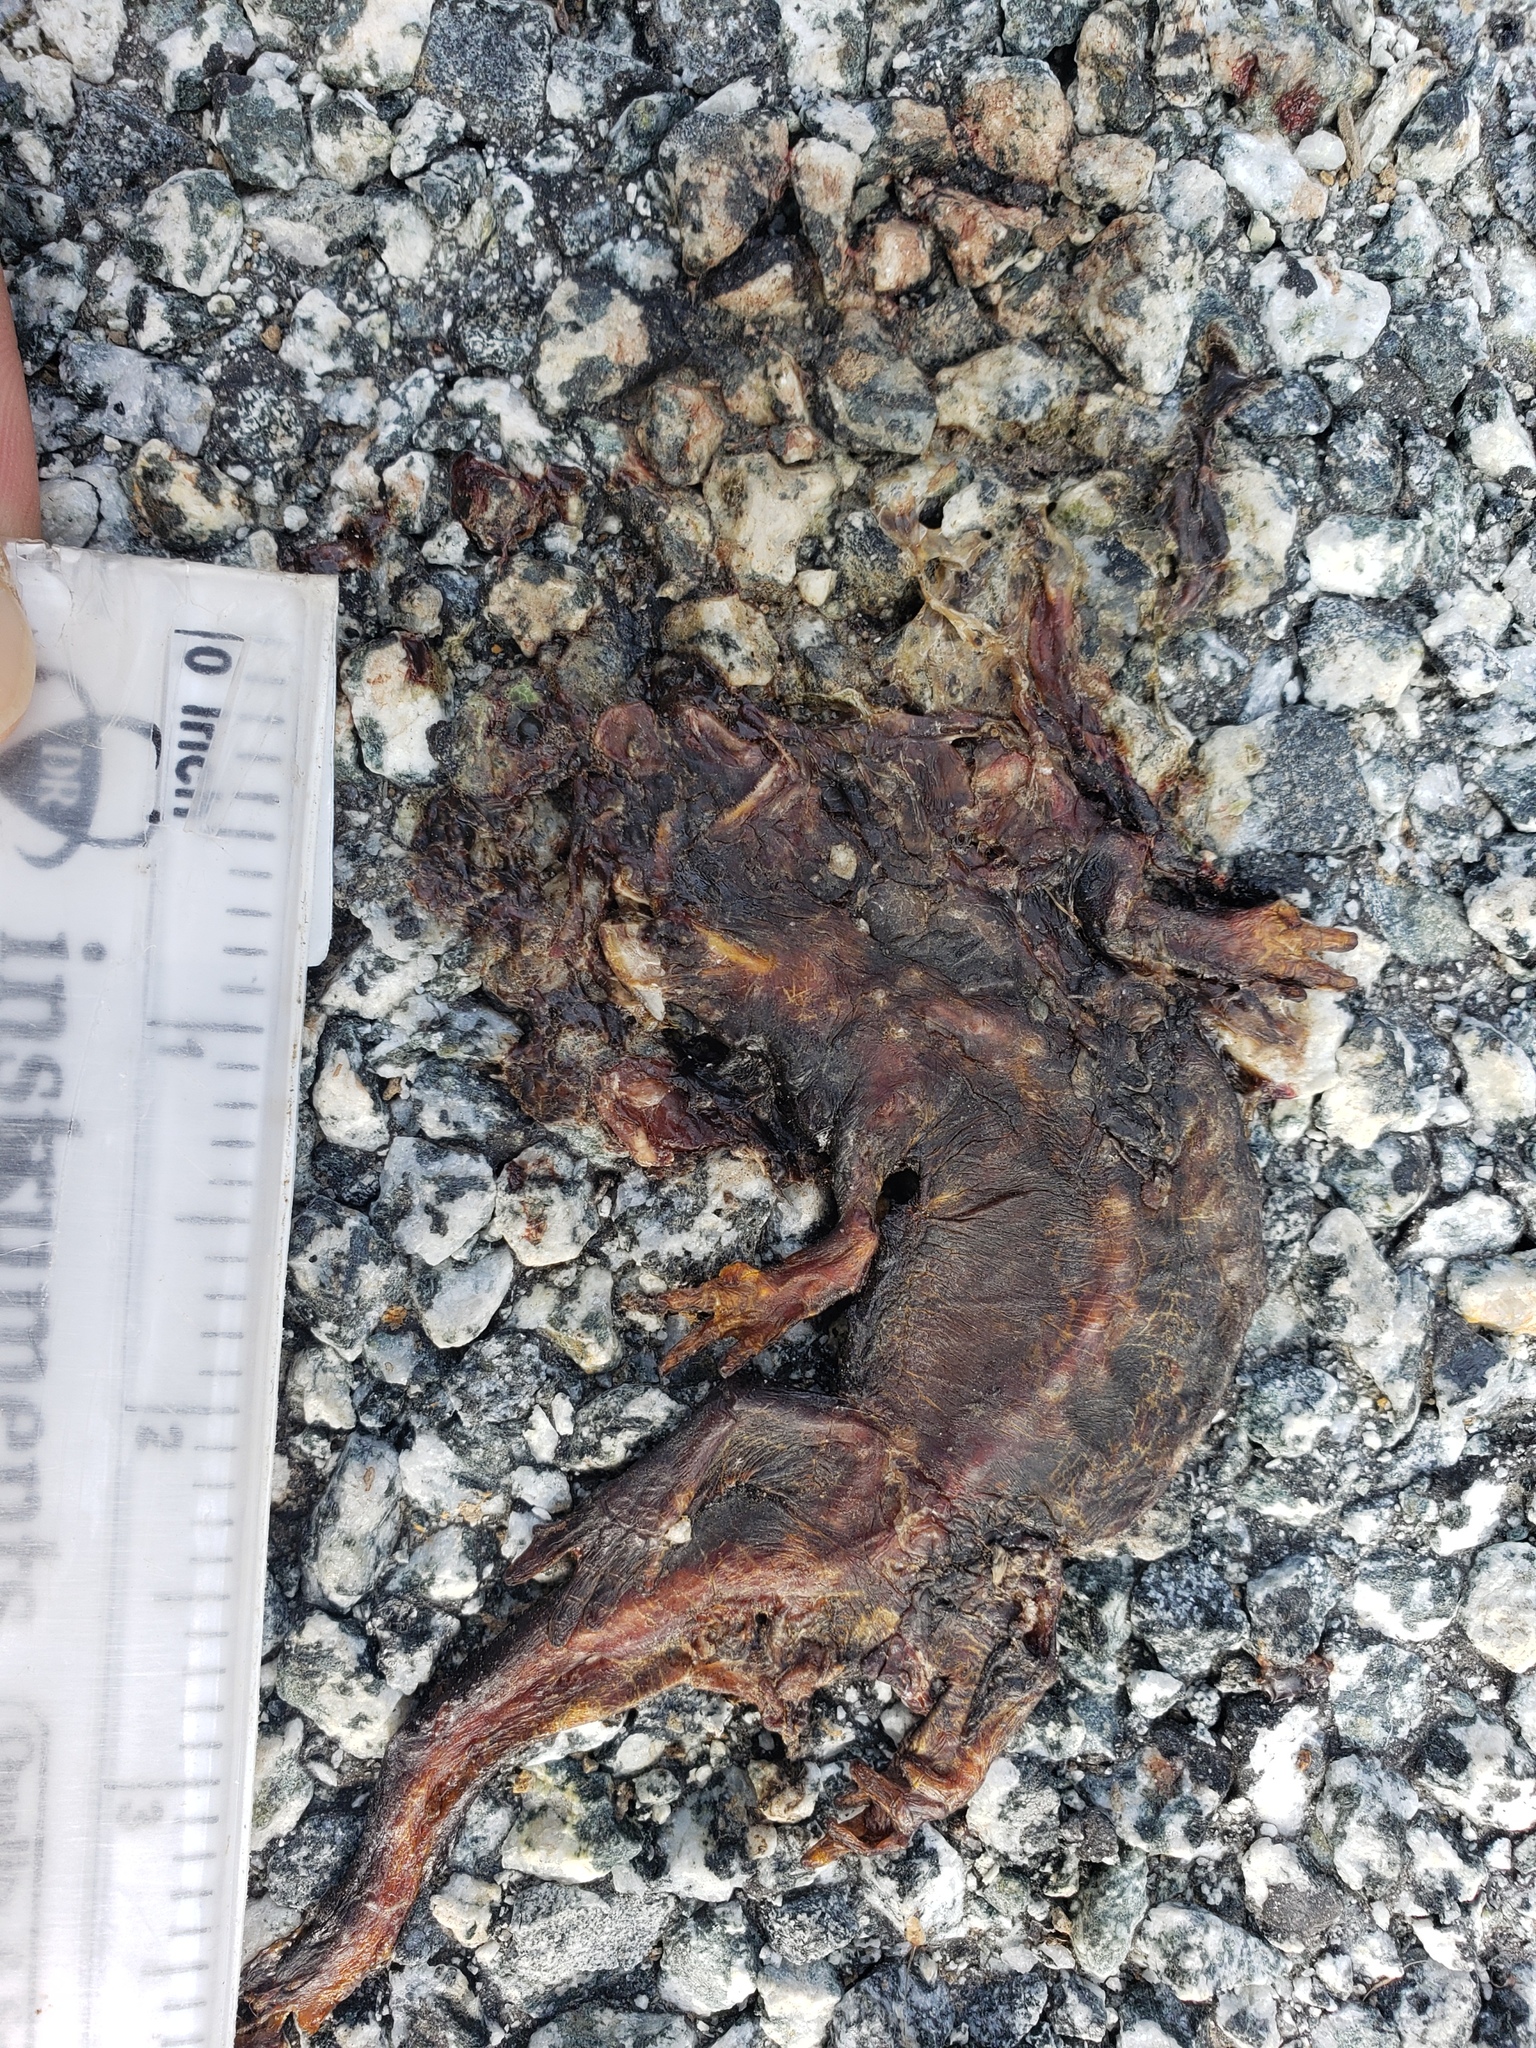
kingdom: Animalia
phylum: Chordata
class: Amphibia
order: Caudata
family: Salamandridae
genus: Taricha
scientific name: Taricha
